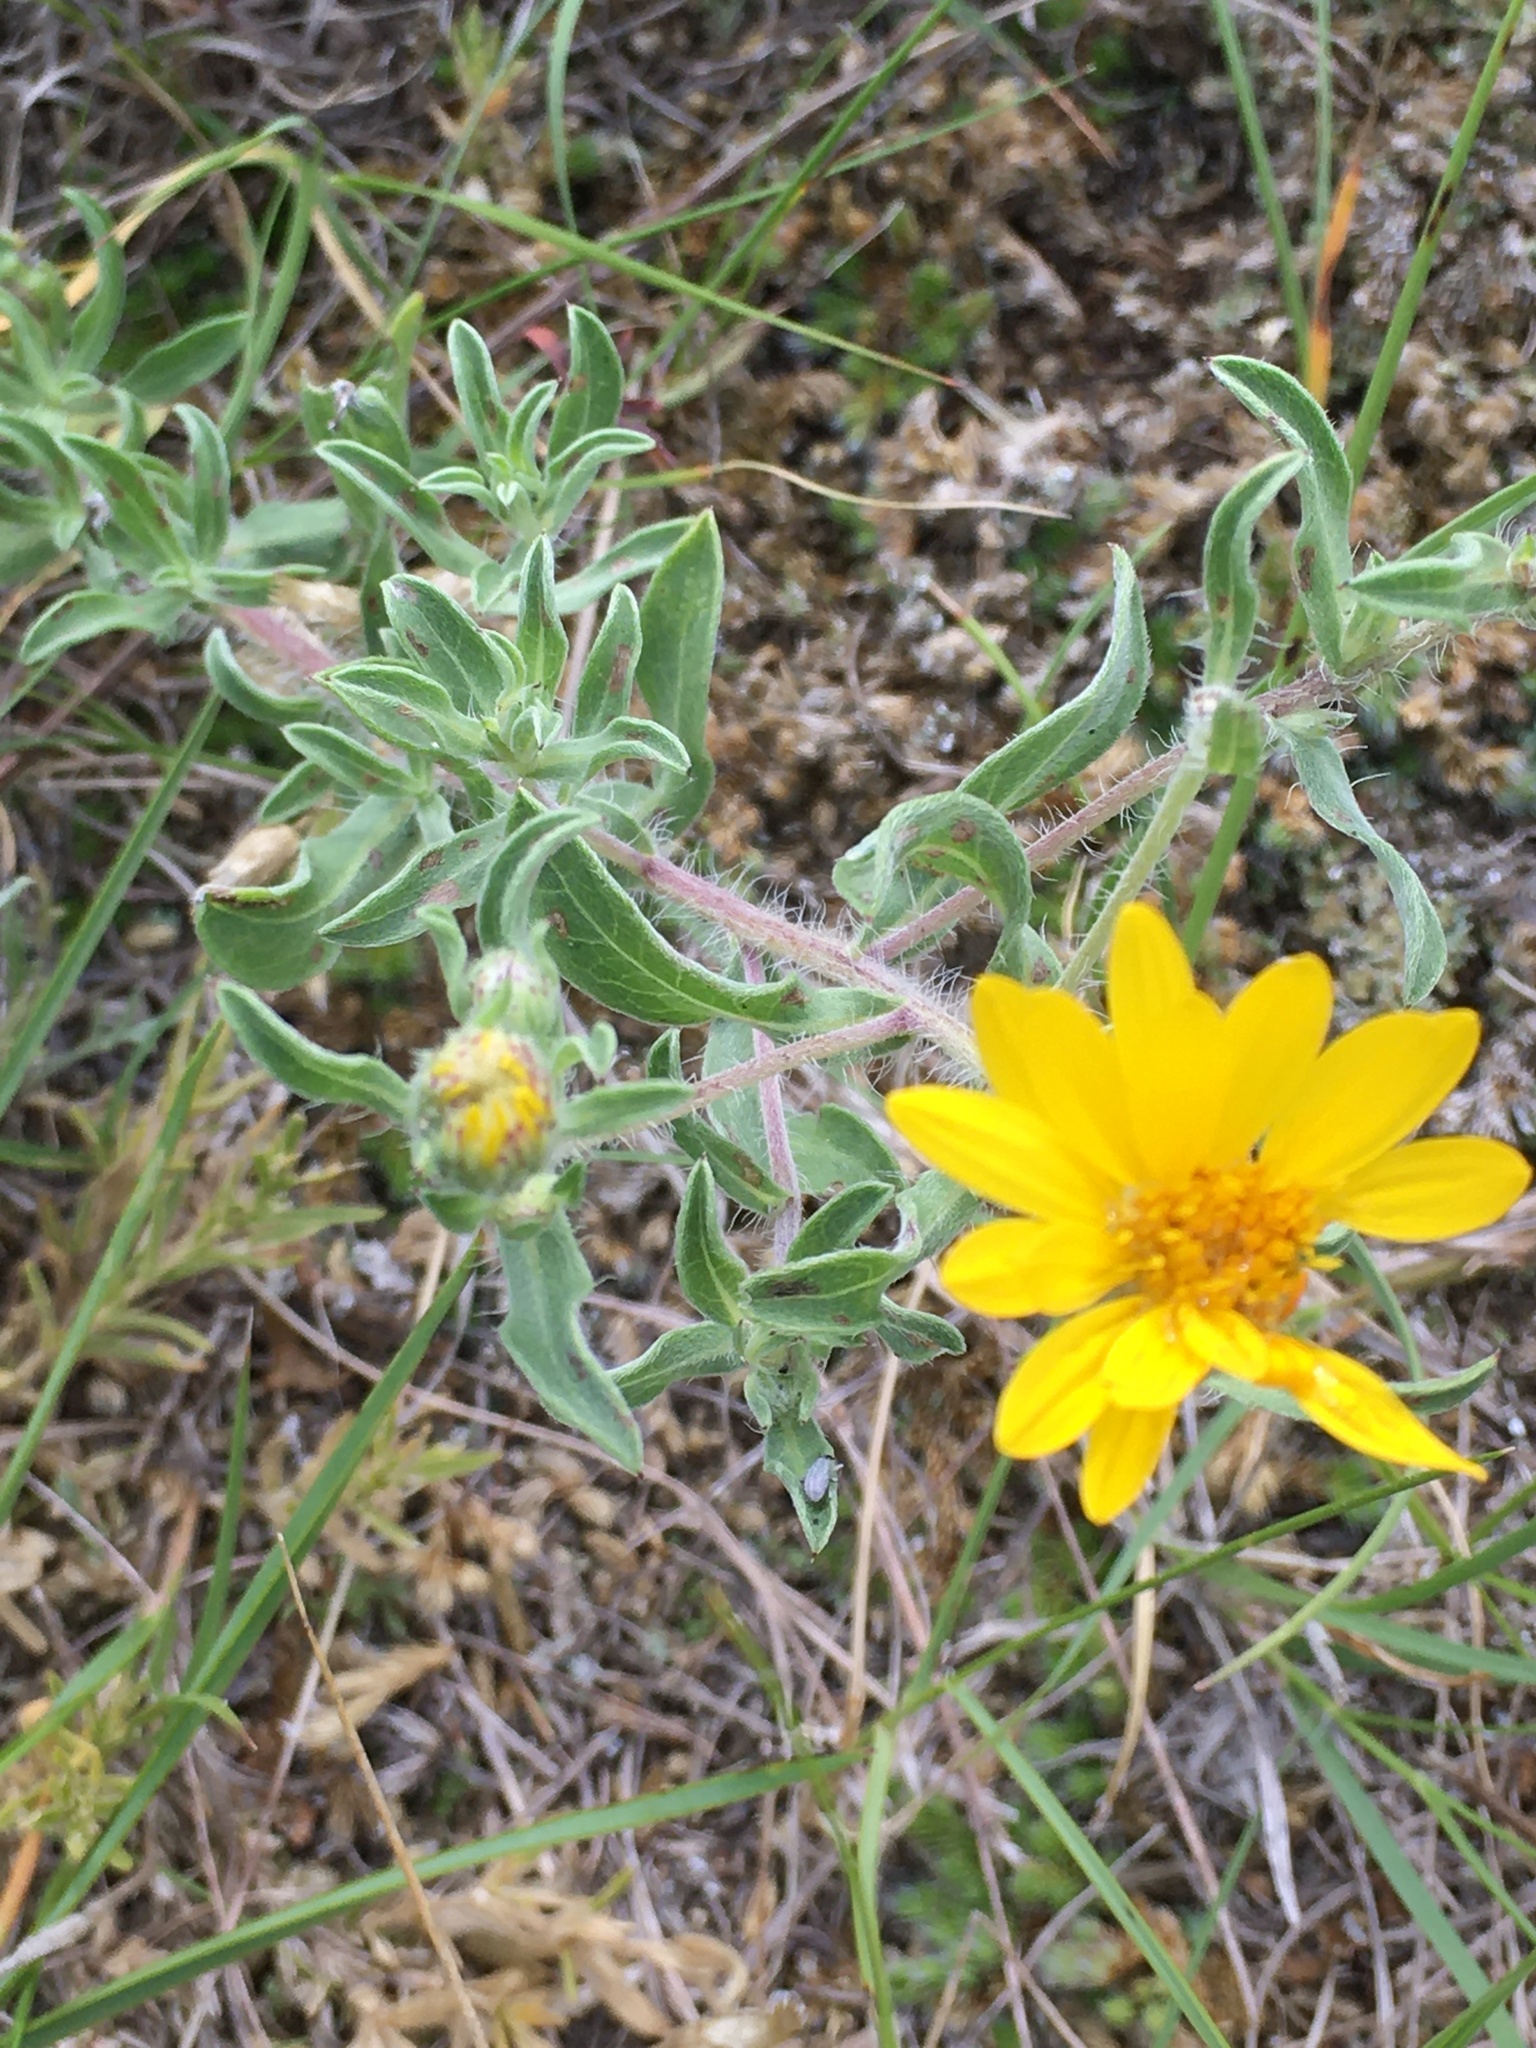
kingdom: Plantae
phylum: Tracheophyta
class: Magnoliopsida
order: Asterales
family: Asteraceae
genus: Heterotheca
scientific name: Heterotheca villosa
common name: Hairy false goldenaster
